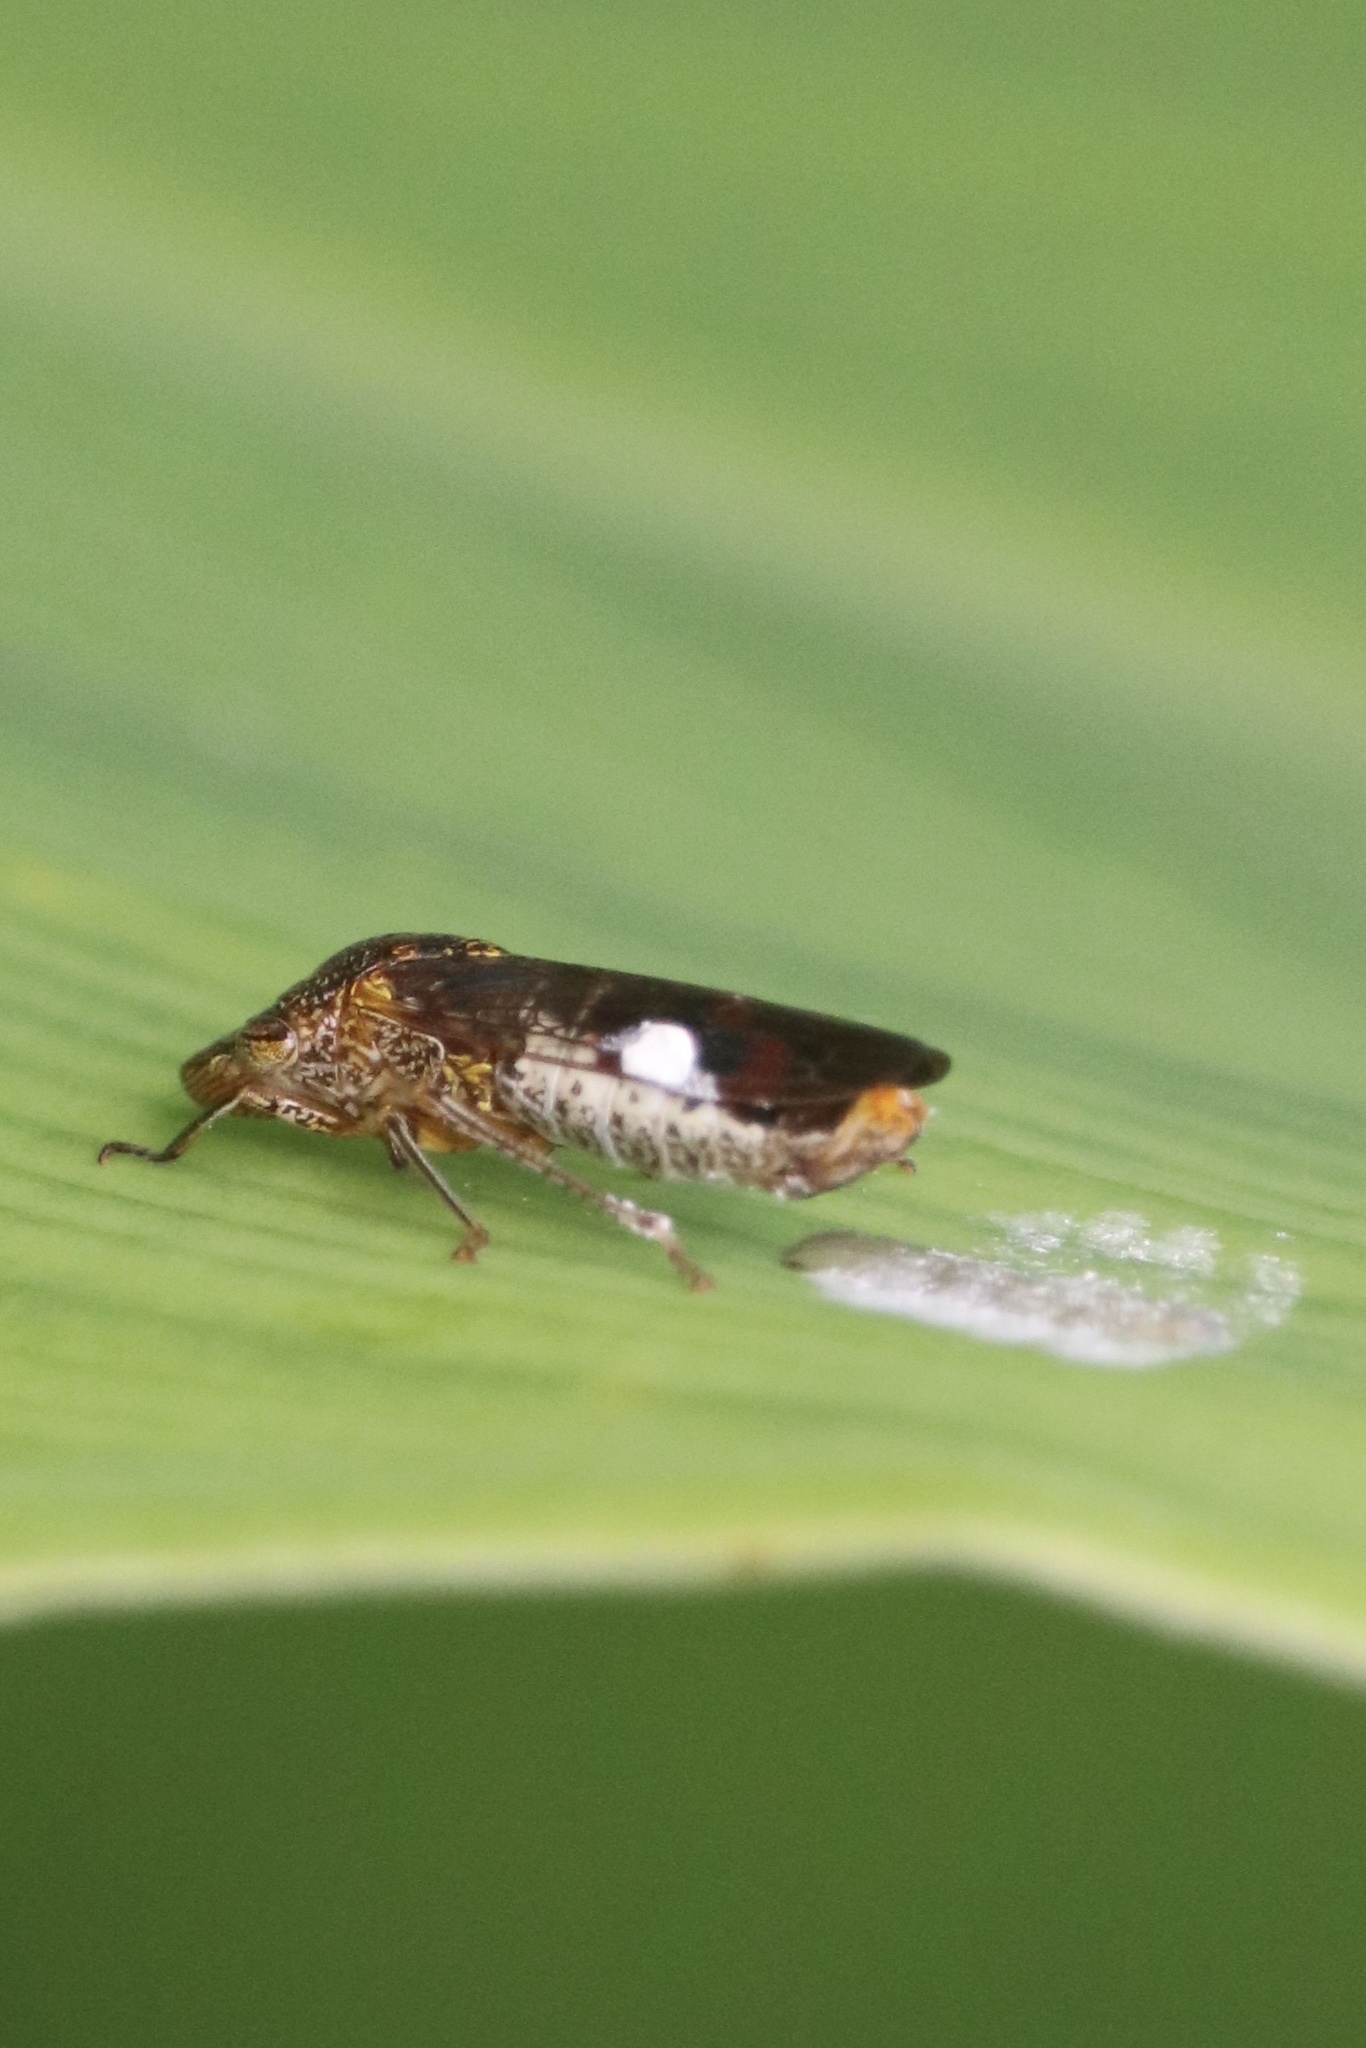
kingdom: Animalia
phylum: Arthropoda
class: Insecta
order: Hemiptera
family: Cicadellidae
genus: Homalodisca
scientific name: Homalodisca vitripennis
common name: Glassy-winged sharpshooter
